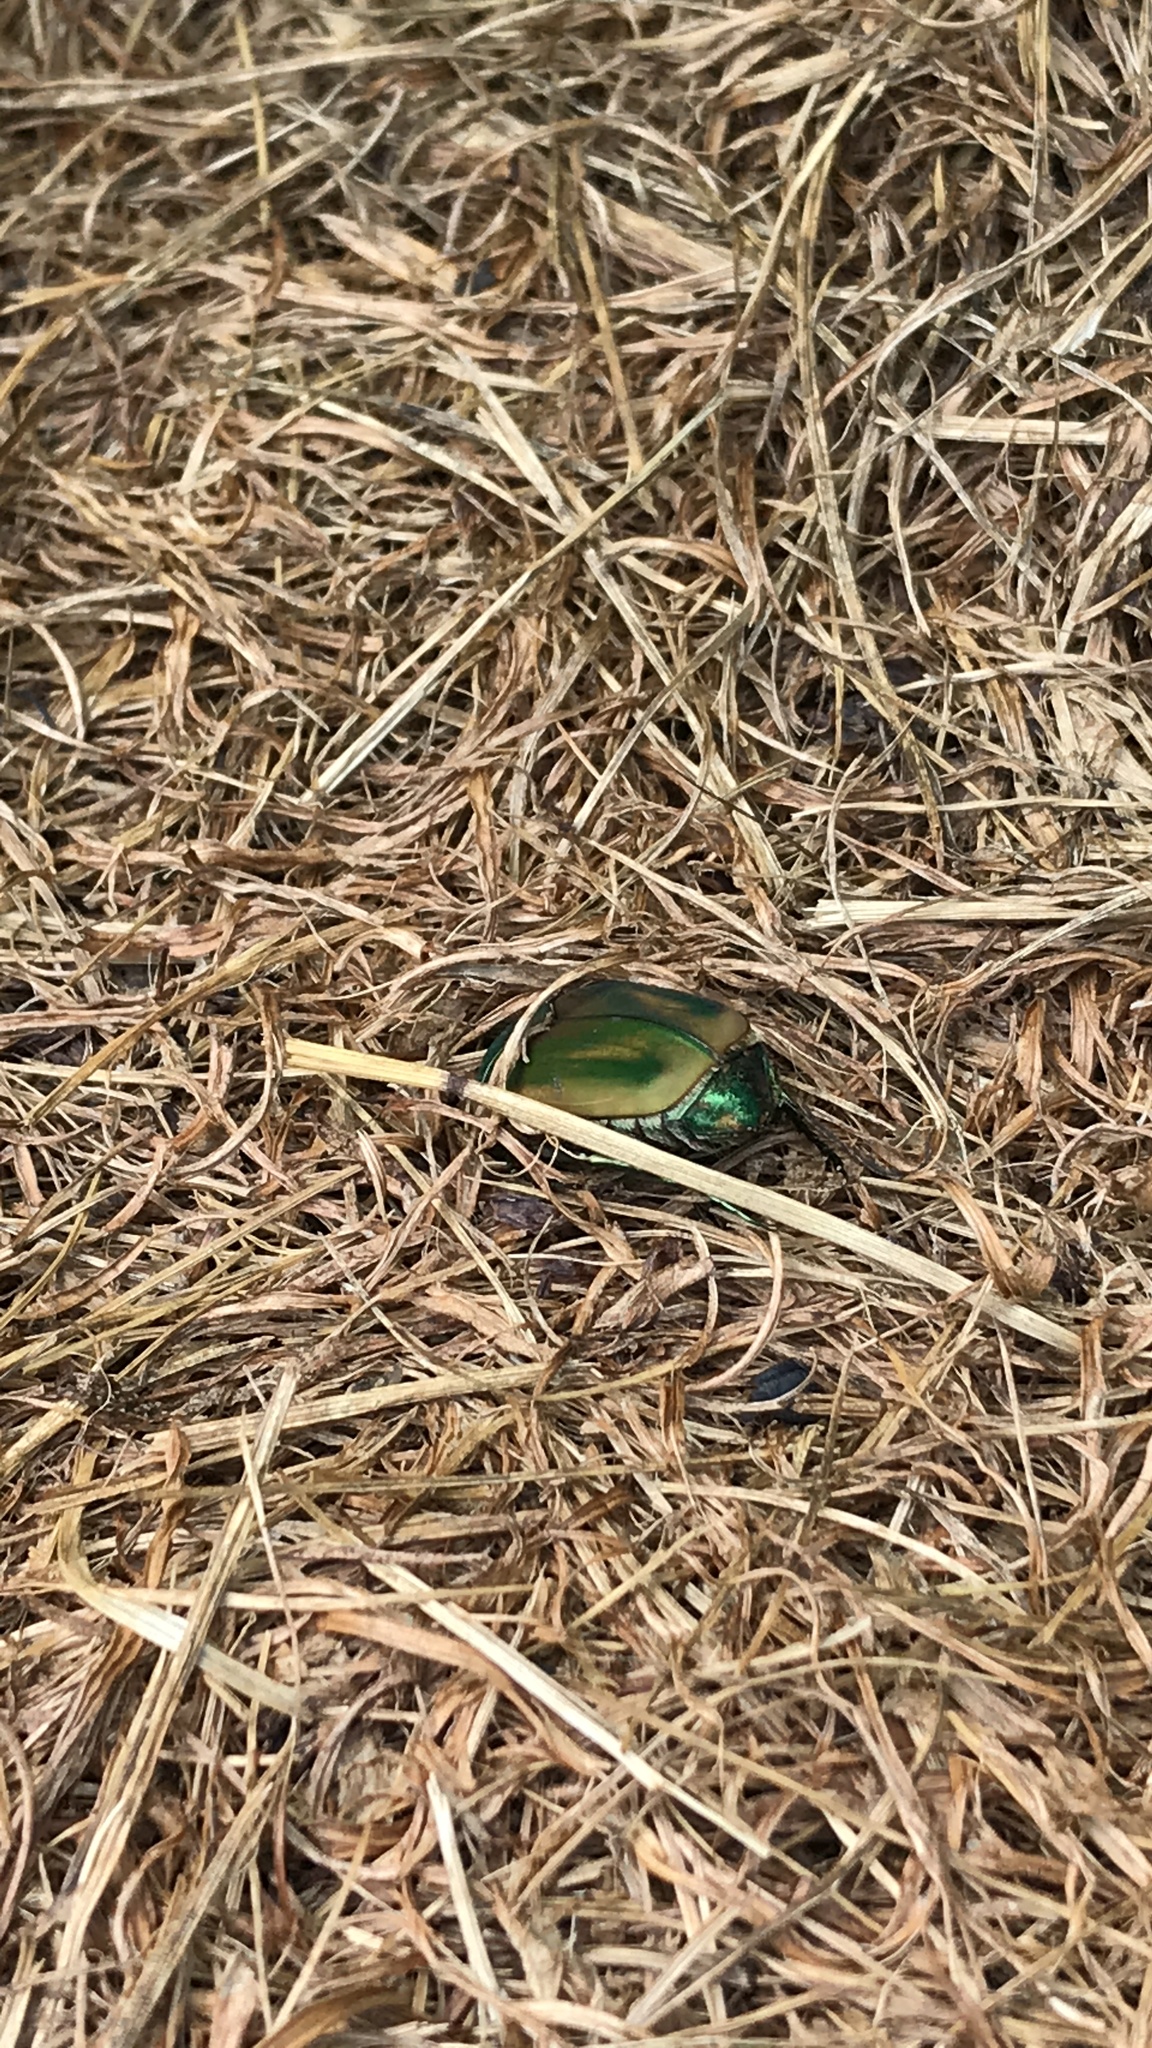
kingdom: Animalia
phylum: Arthropoda
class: Insecta
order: Coleoptera
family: Scarabaeidae
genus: Cotinis
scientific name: Cotinis nitida
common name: Common green june beetle
